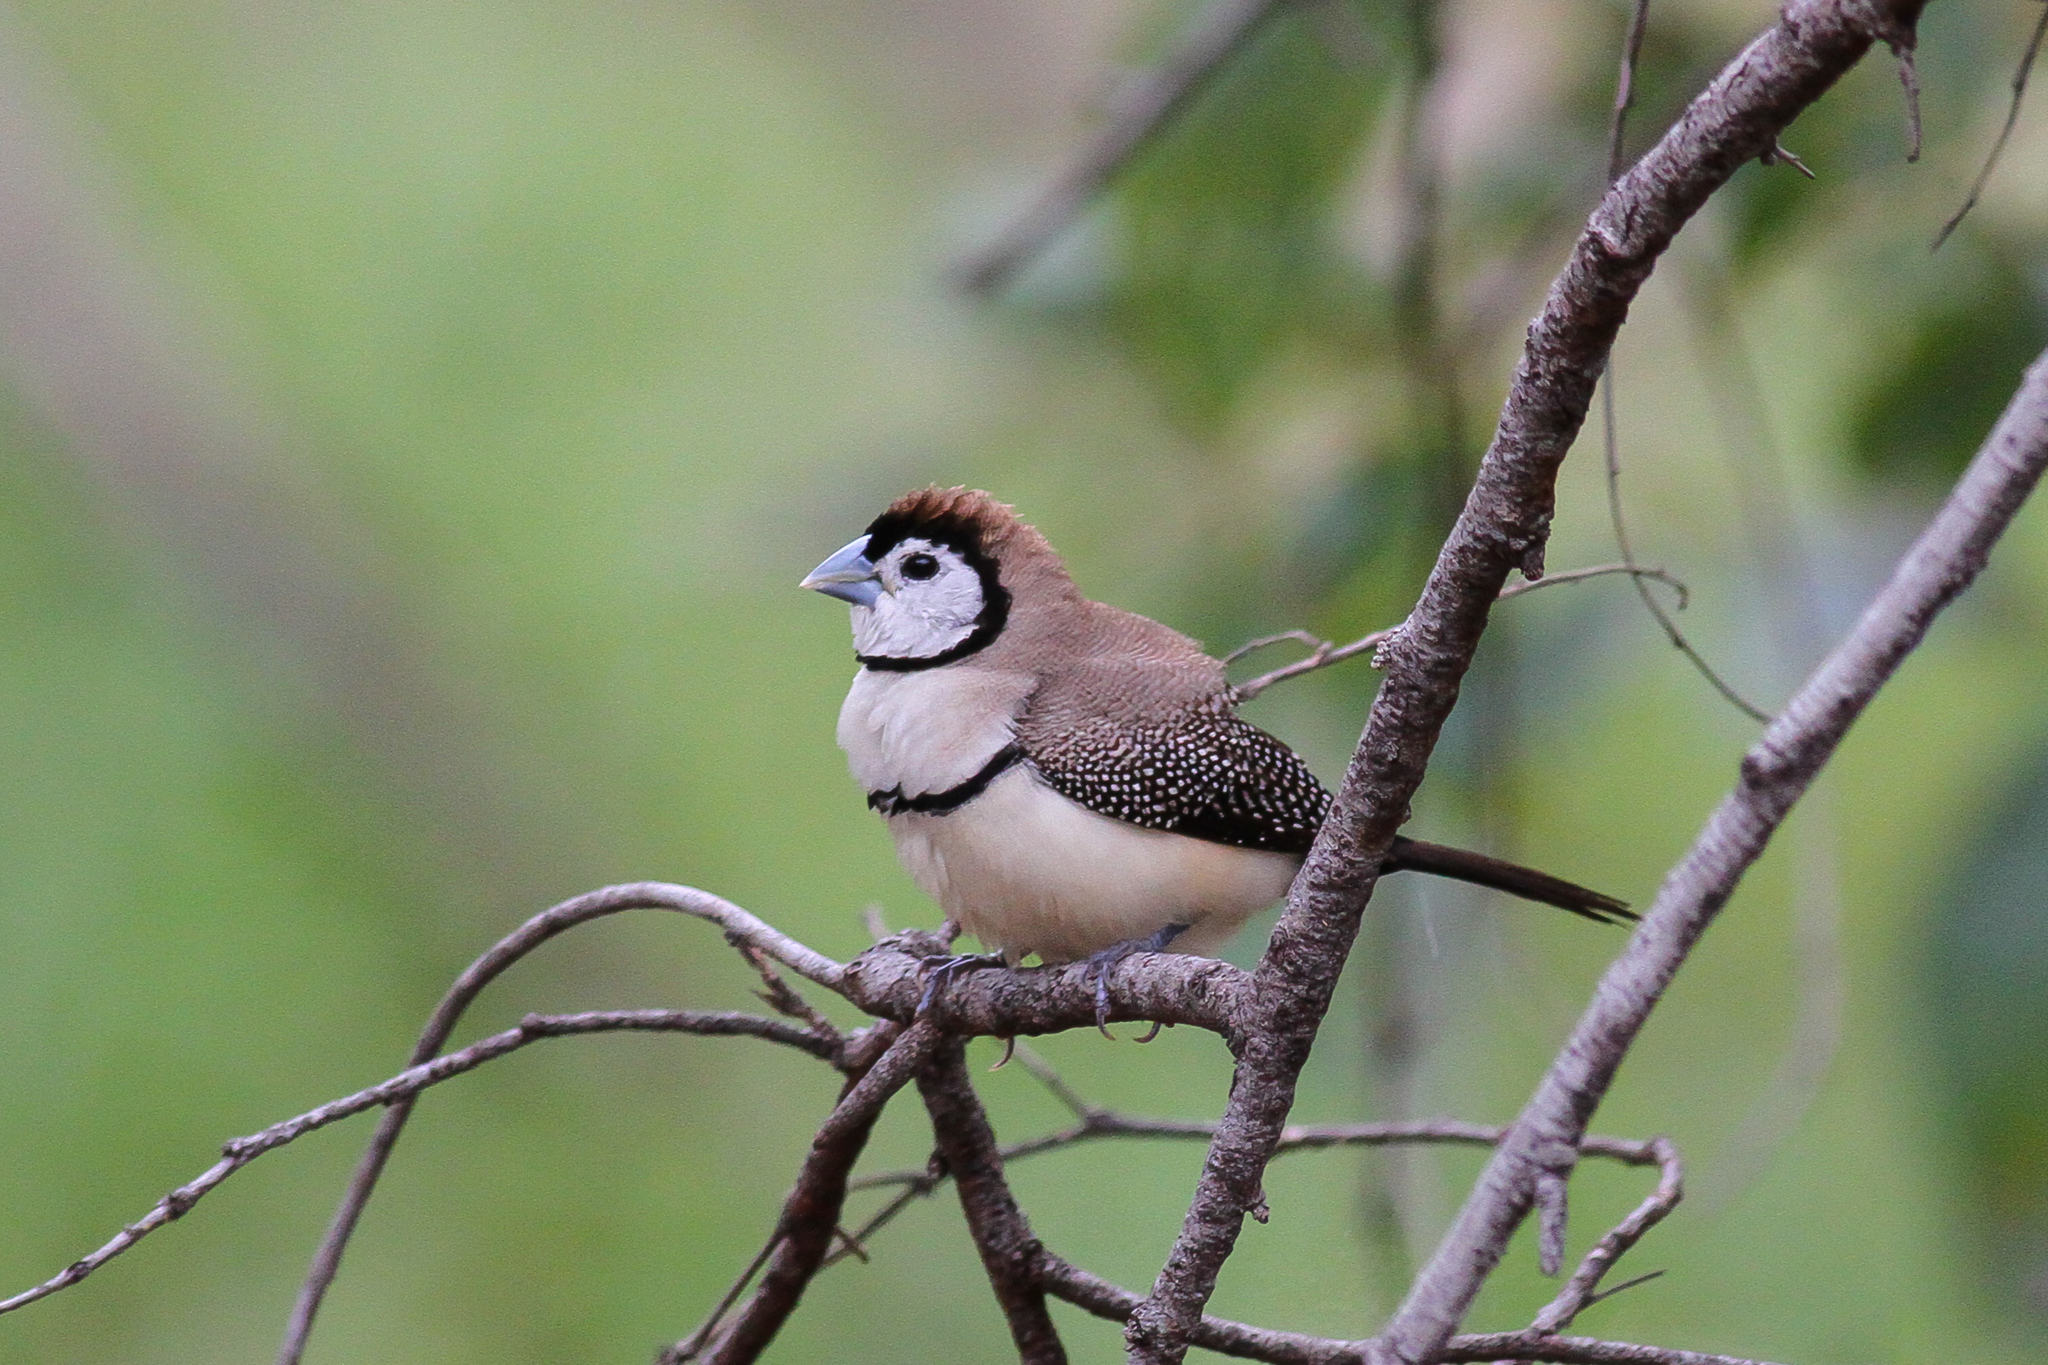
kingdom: Animalia
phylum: Chordata
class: Aves
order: Passeriformes
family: Estrildidae
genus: Taeniopygia
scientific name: Taeniopygia bichenovii
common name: Double-barred finch
